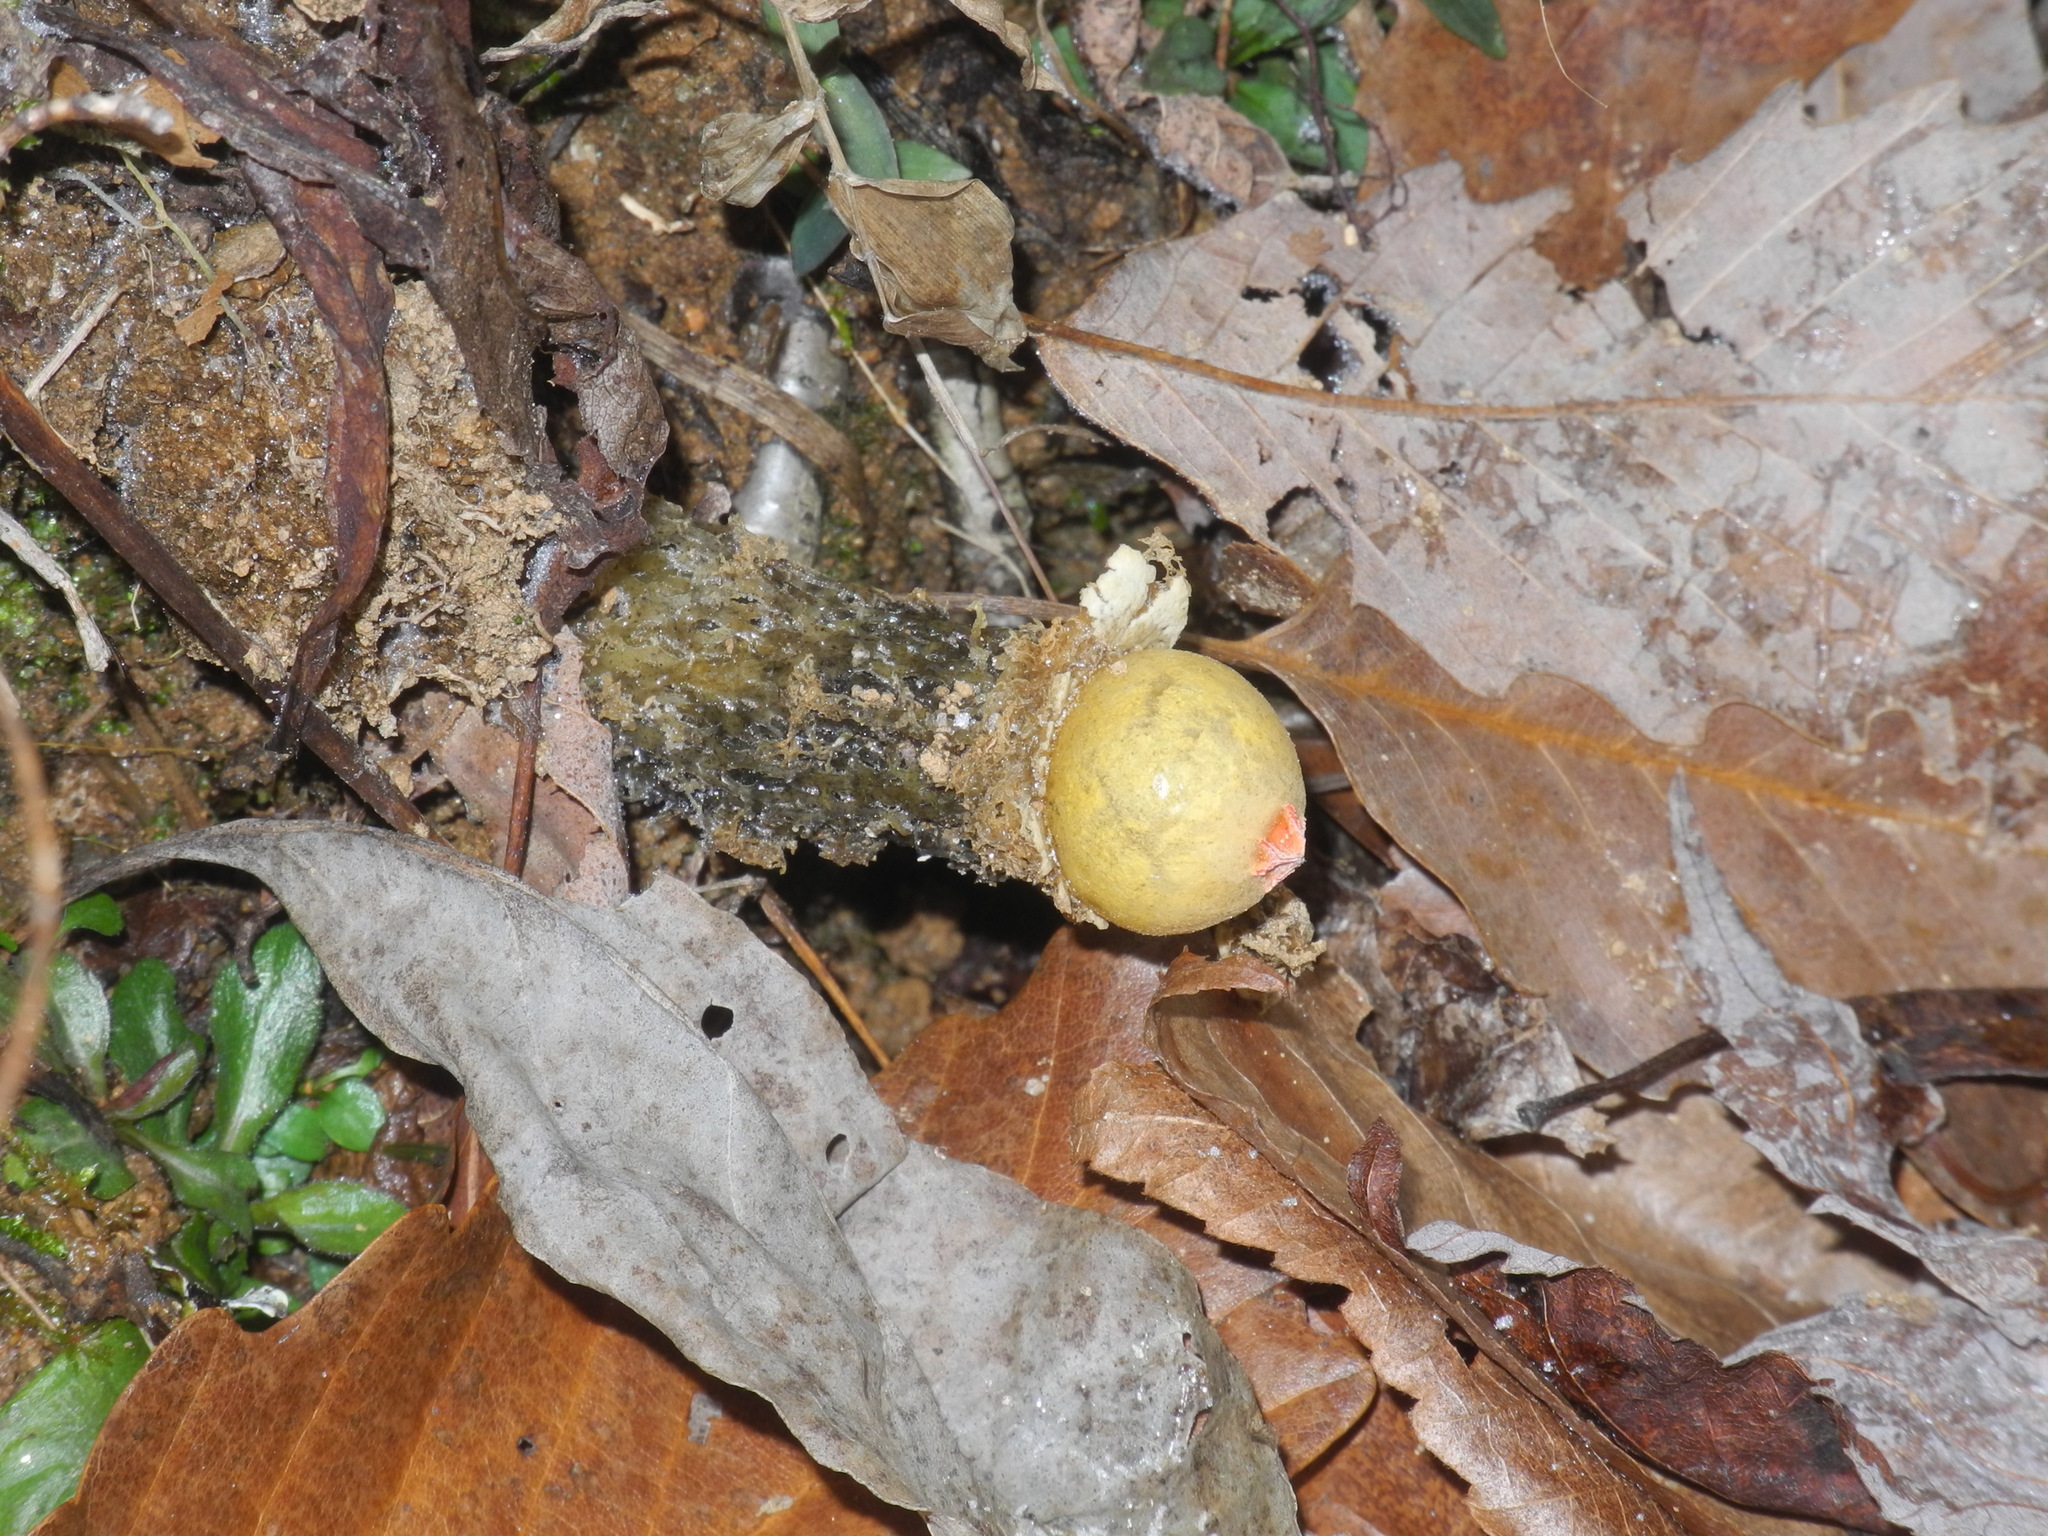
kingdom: Fungi
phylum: Basidiomycota
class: Agaricomycetes
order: Boletales
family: Calostomataceae
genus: Calostoma
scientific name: Calostoma lutescens
